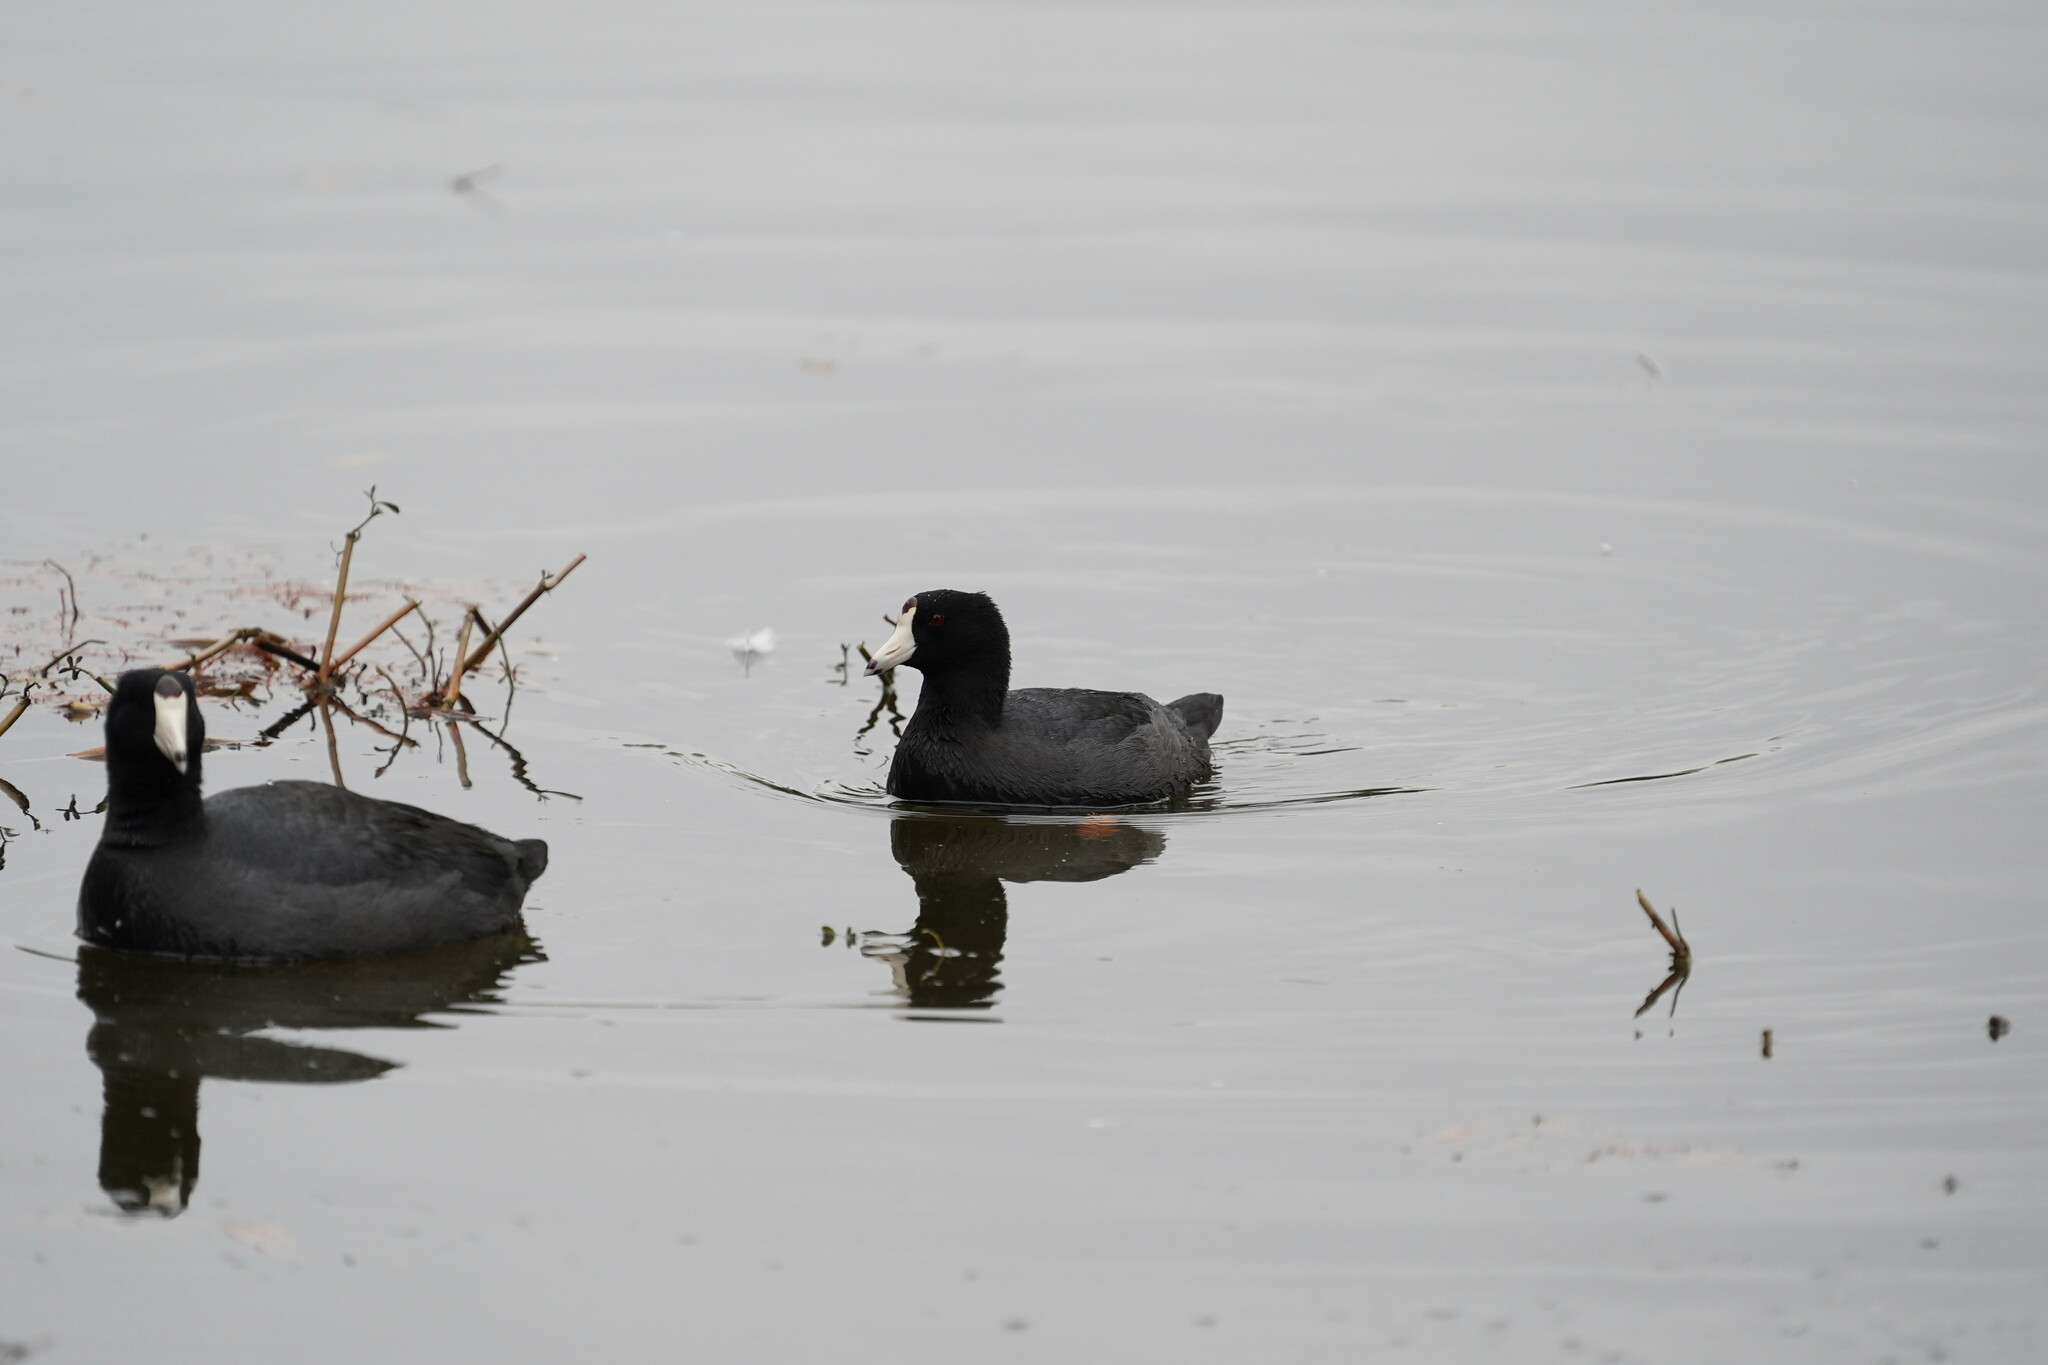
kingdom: Animalia
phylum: Chordata
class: Aves
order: Gruiformes
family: Rallidae
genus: Fulica
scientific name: Fulica americana
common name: American coot
